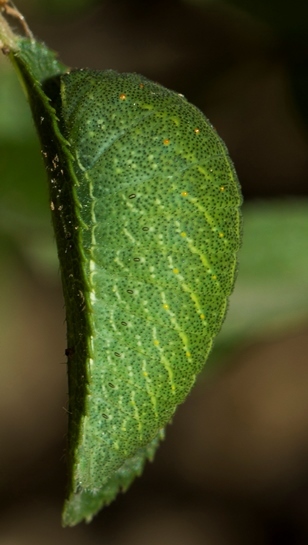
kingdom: Animalia
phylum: Arthropoda
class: Insecta
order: Lepidoptera
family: Papilionidae
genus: Iphiclides
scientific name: Iphiclides feisthamelii
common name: Iberian scarce swallowtail
